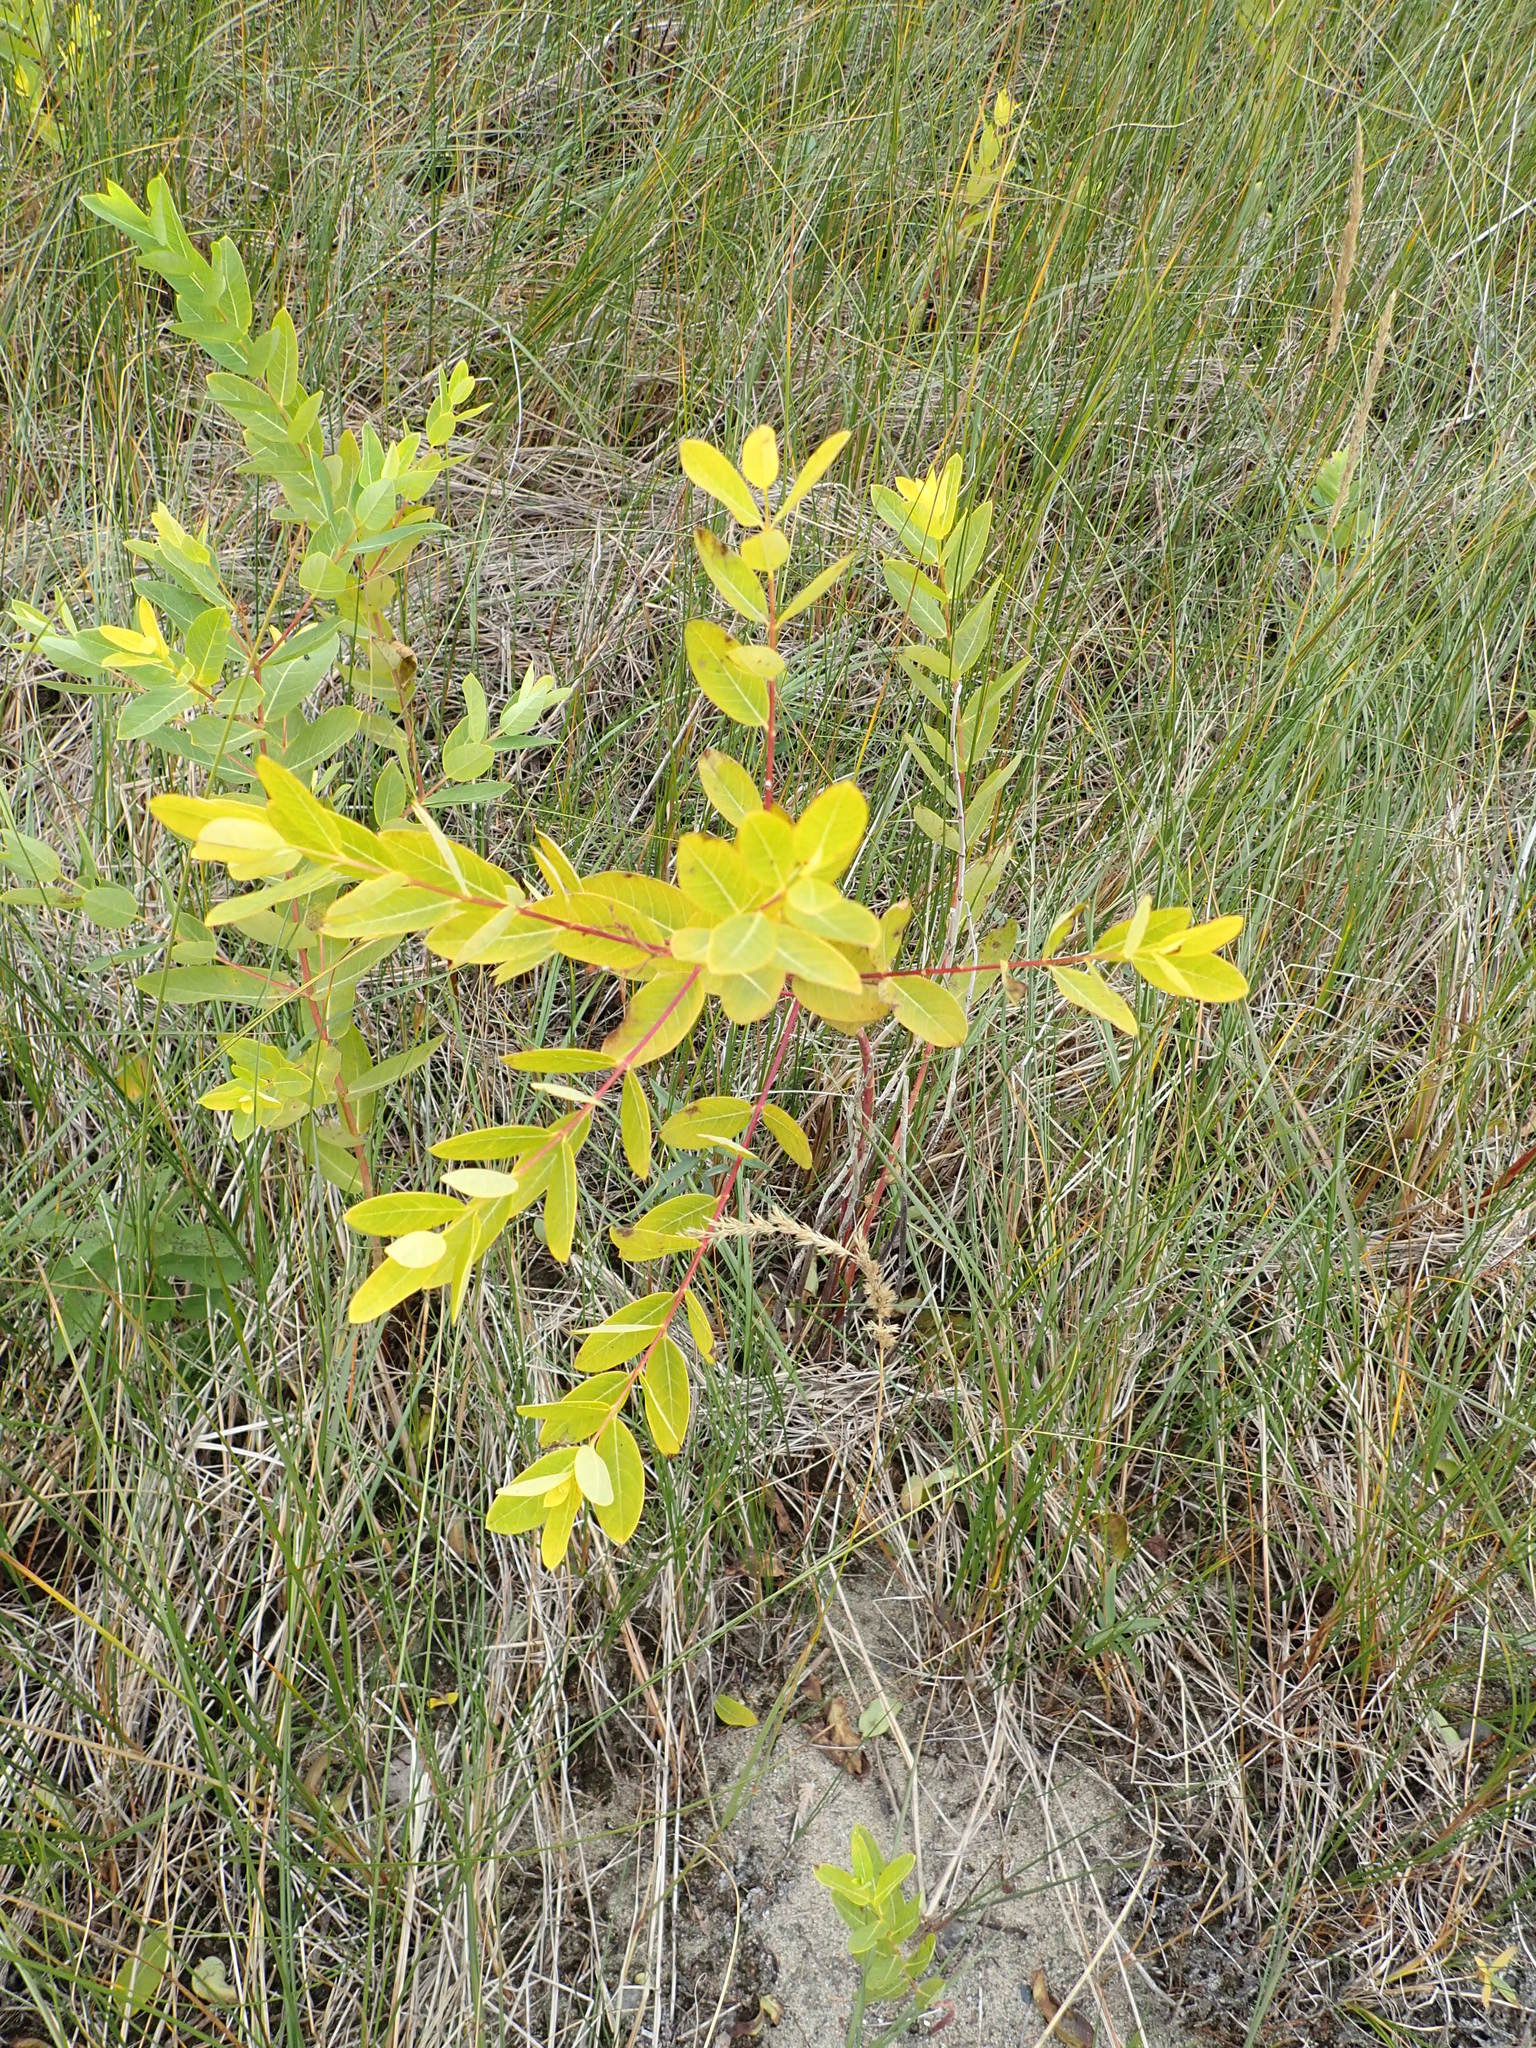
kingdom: Plantae
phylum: Tracheophyta
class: Magnoliopsida
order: Gentianales
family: Apocynaceae
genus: Apocynum
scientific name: Apocynum cannabinum
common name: Hemp dogbane
